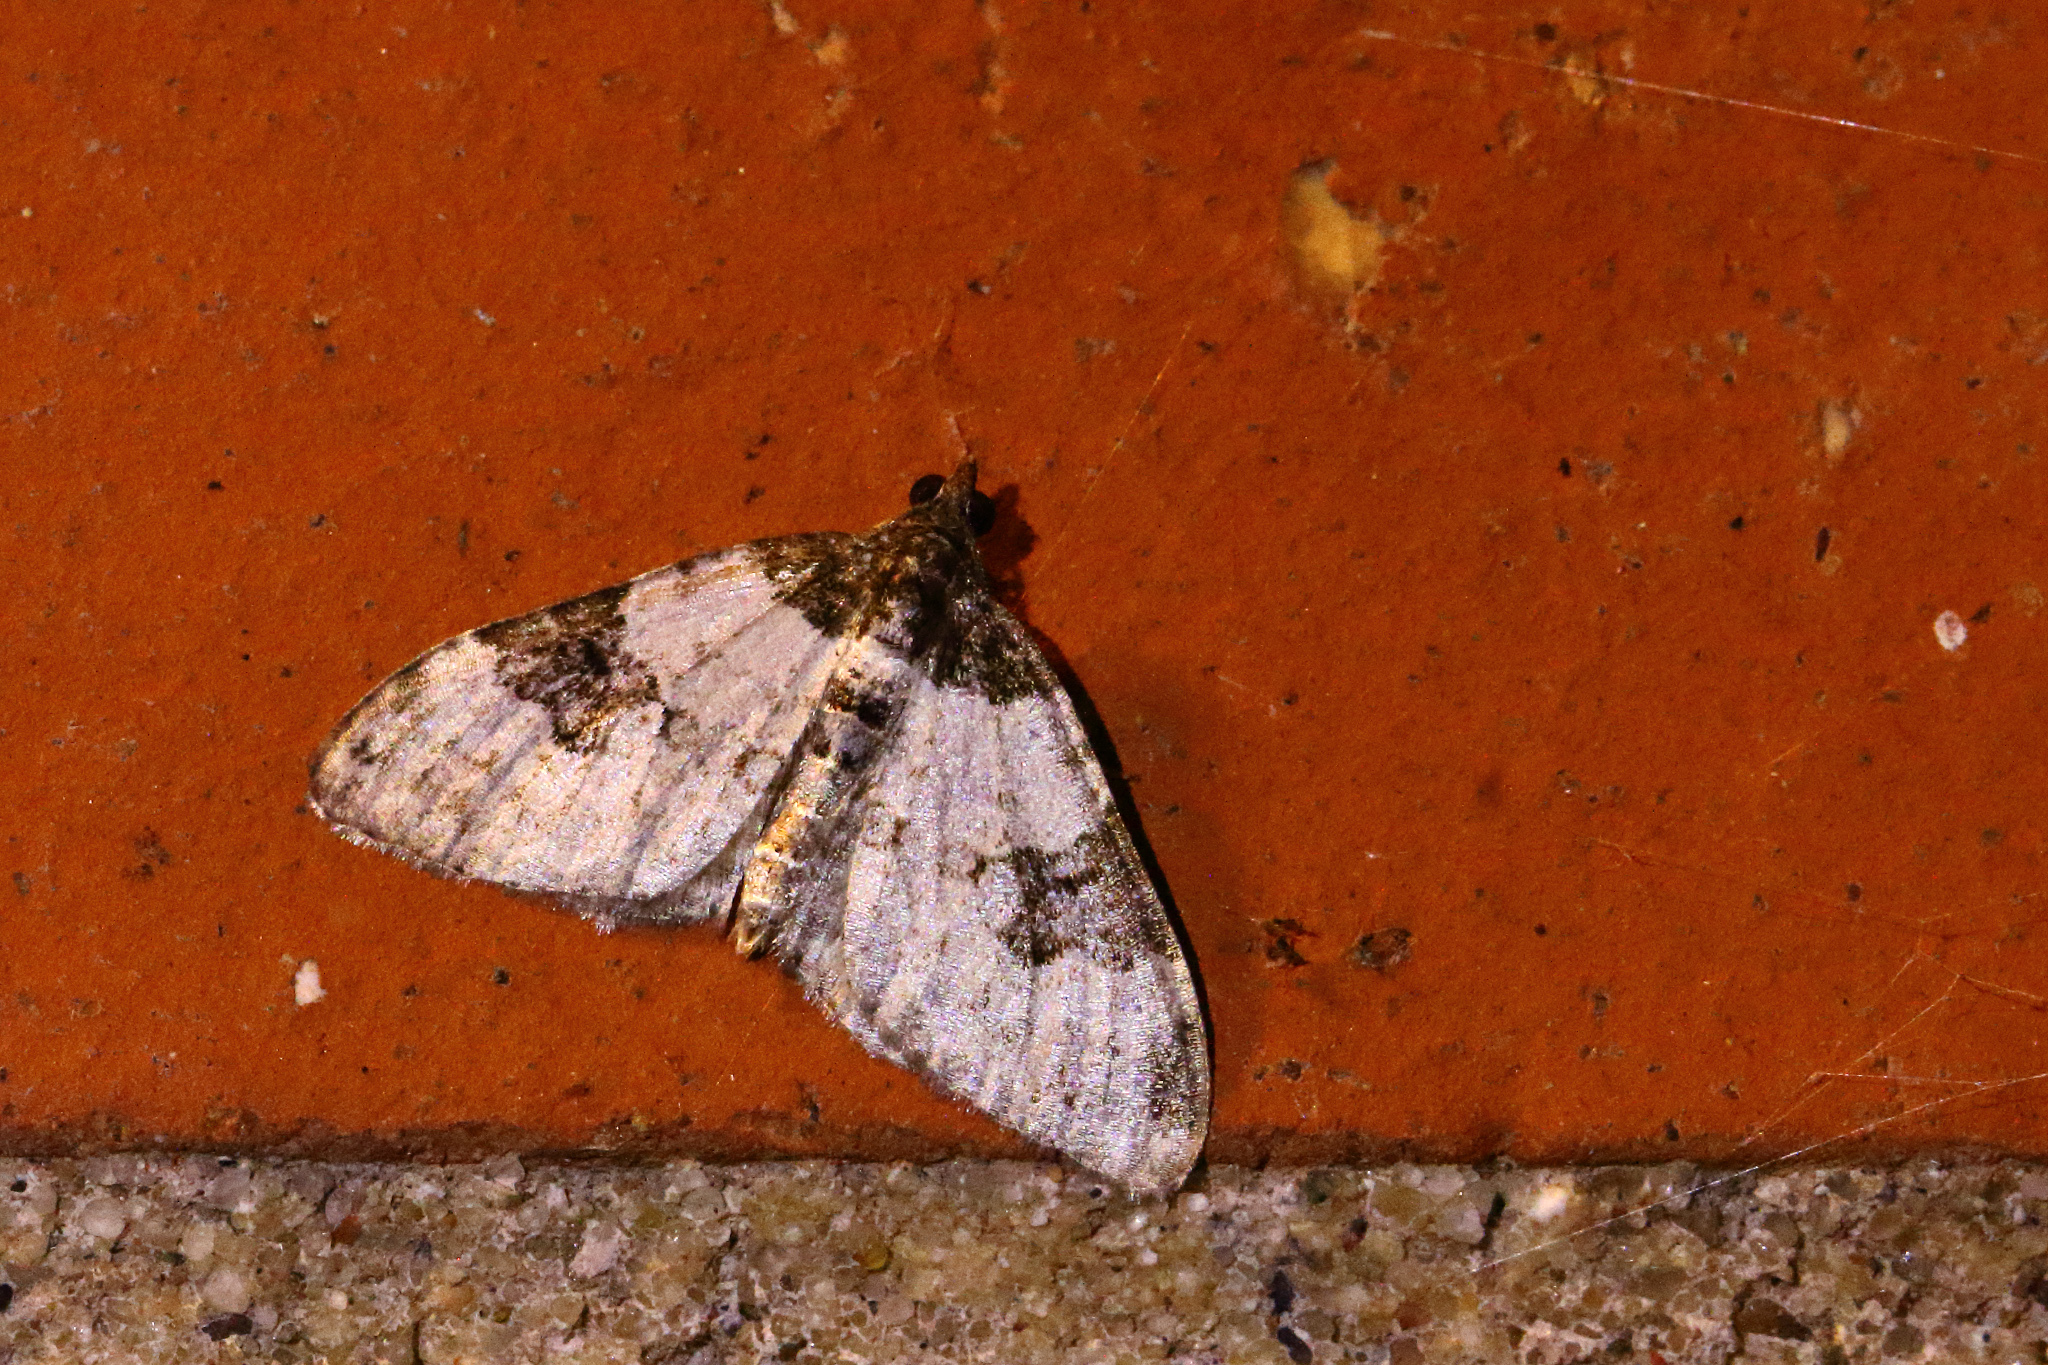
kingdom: Animalia
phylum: Arthropoda
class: Insecta
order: Lepidoptera
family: Geometridae
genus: Xanthorhoe
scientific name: Xanthorhoe fluctuata
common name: Garden carpet
